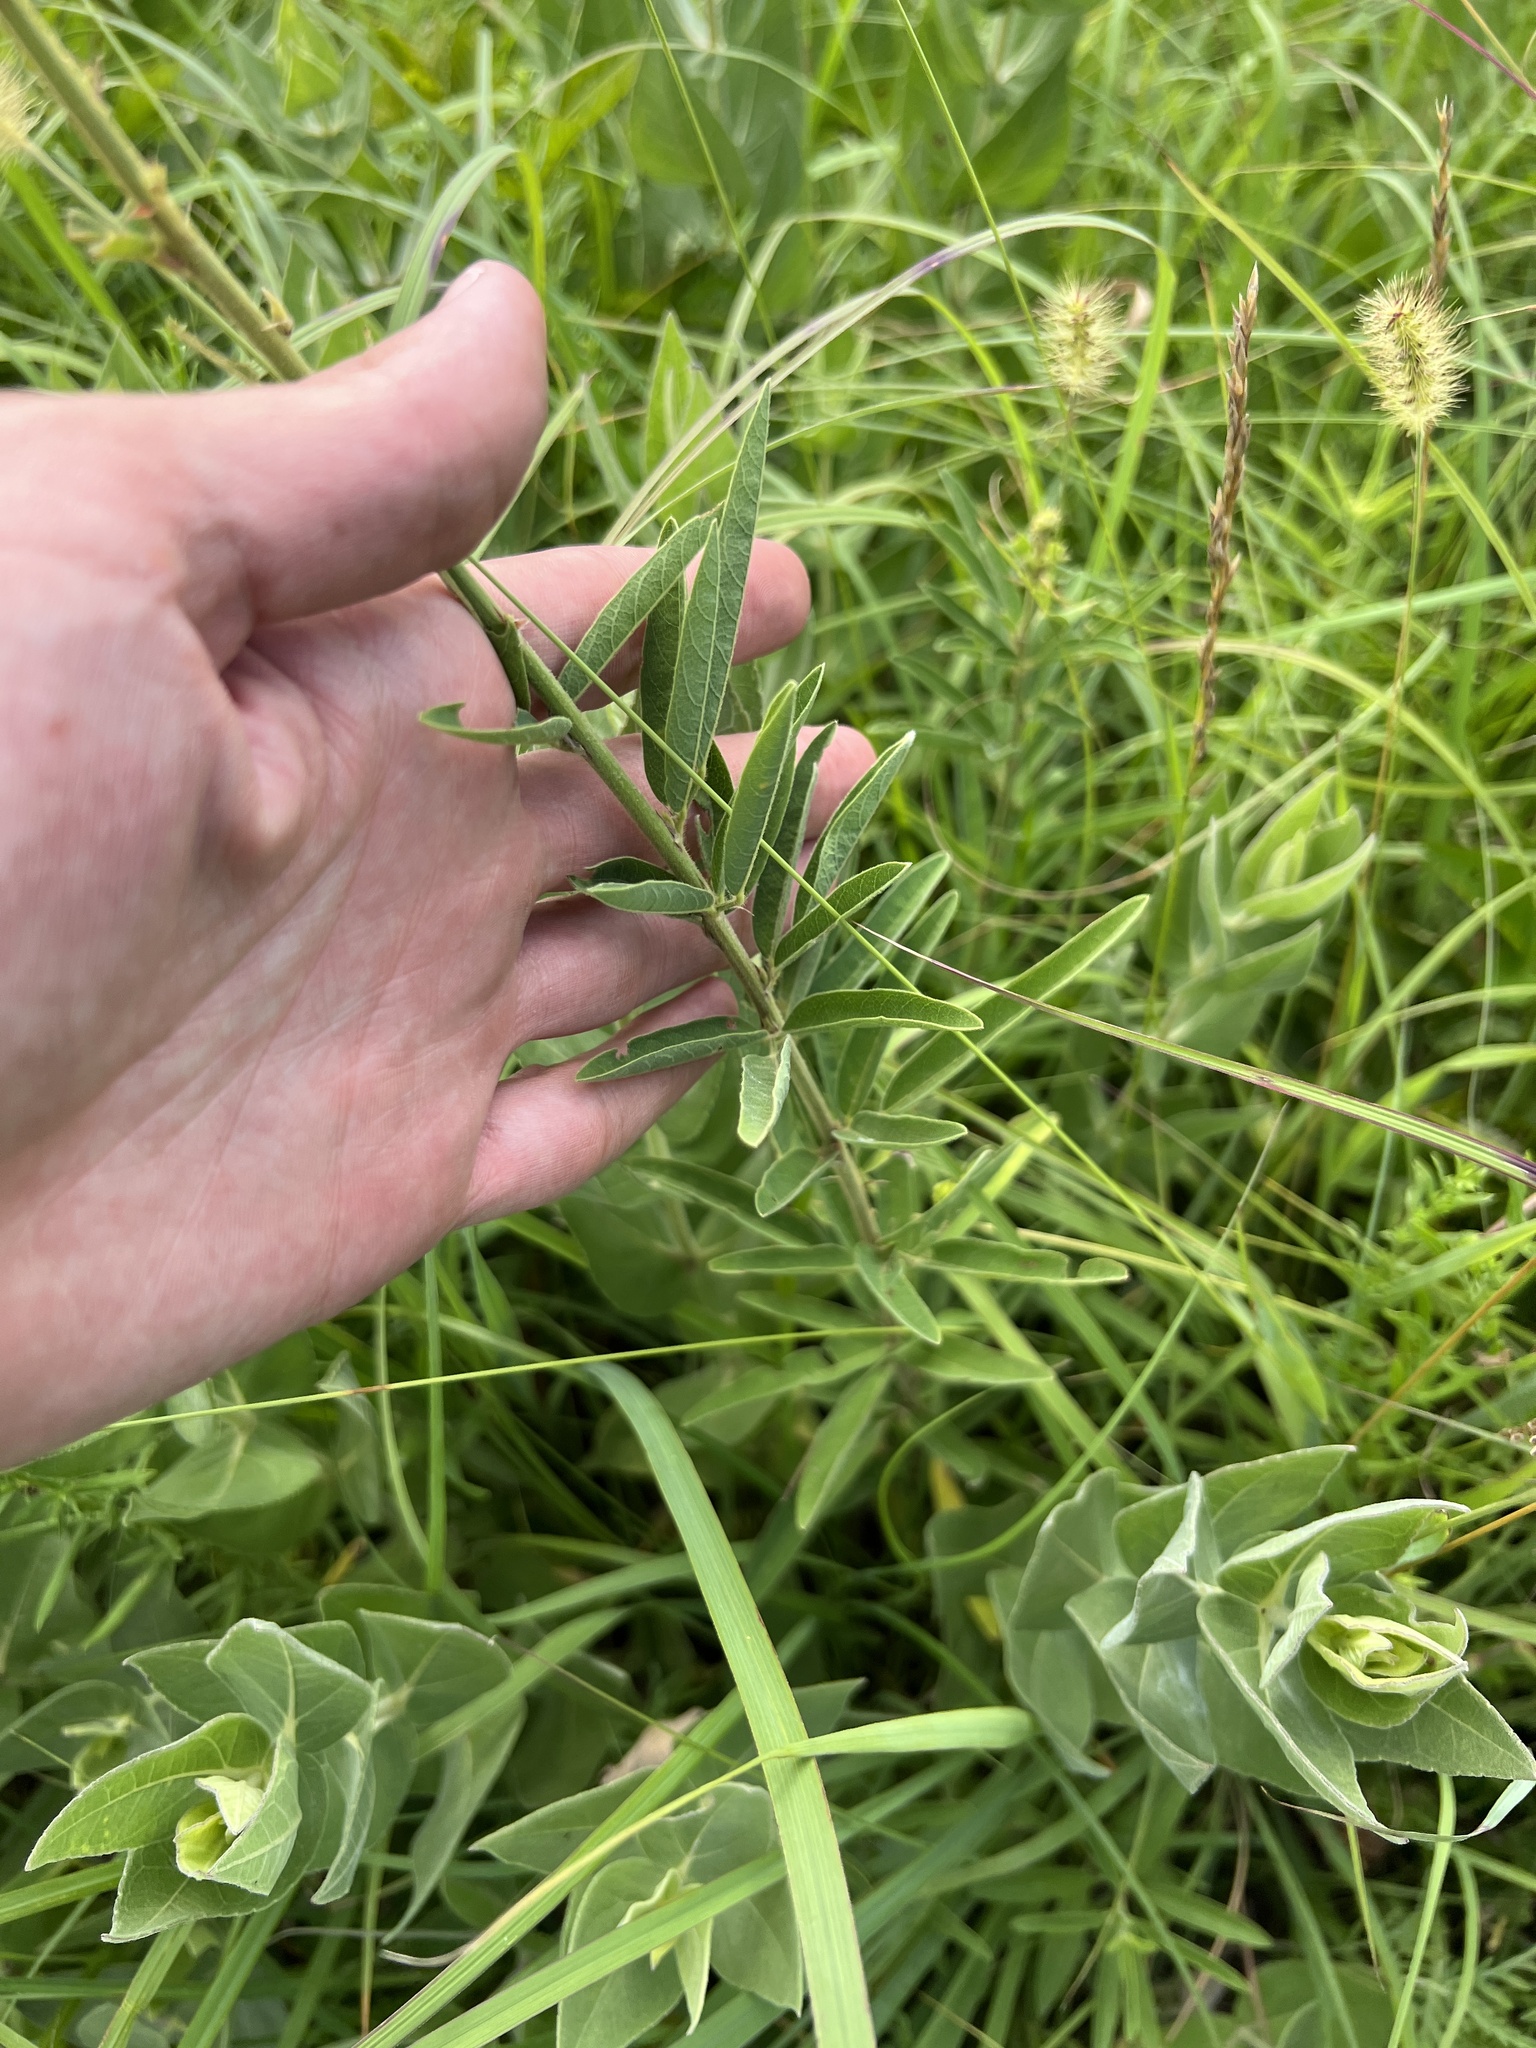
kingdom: Plantae
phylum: Tracheophyta
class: Magnoliopsida
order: Fabales
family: Fabaceae
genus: Desmodium
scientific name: Desmodium sessilifolium
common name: Sessile tick-clover
